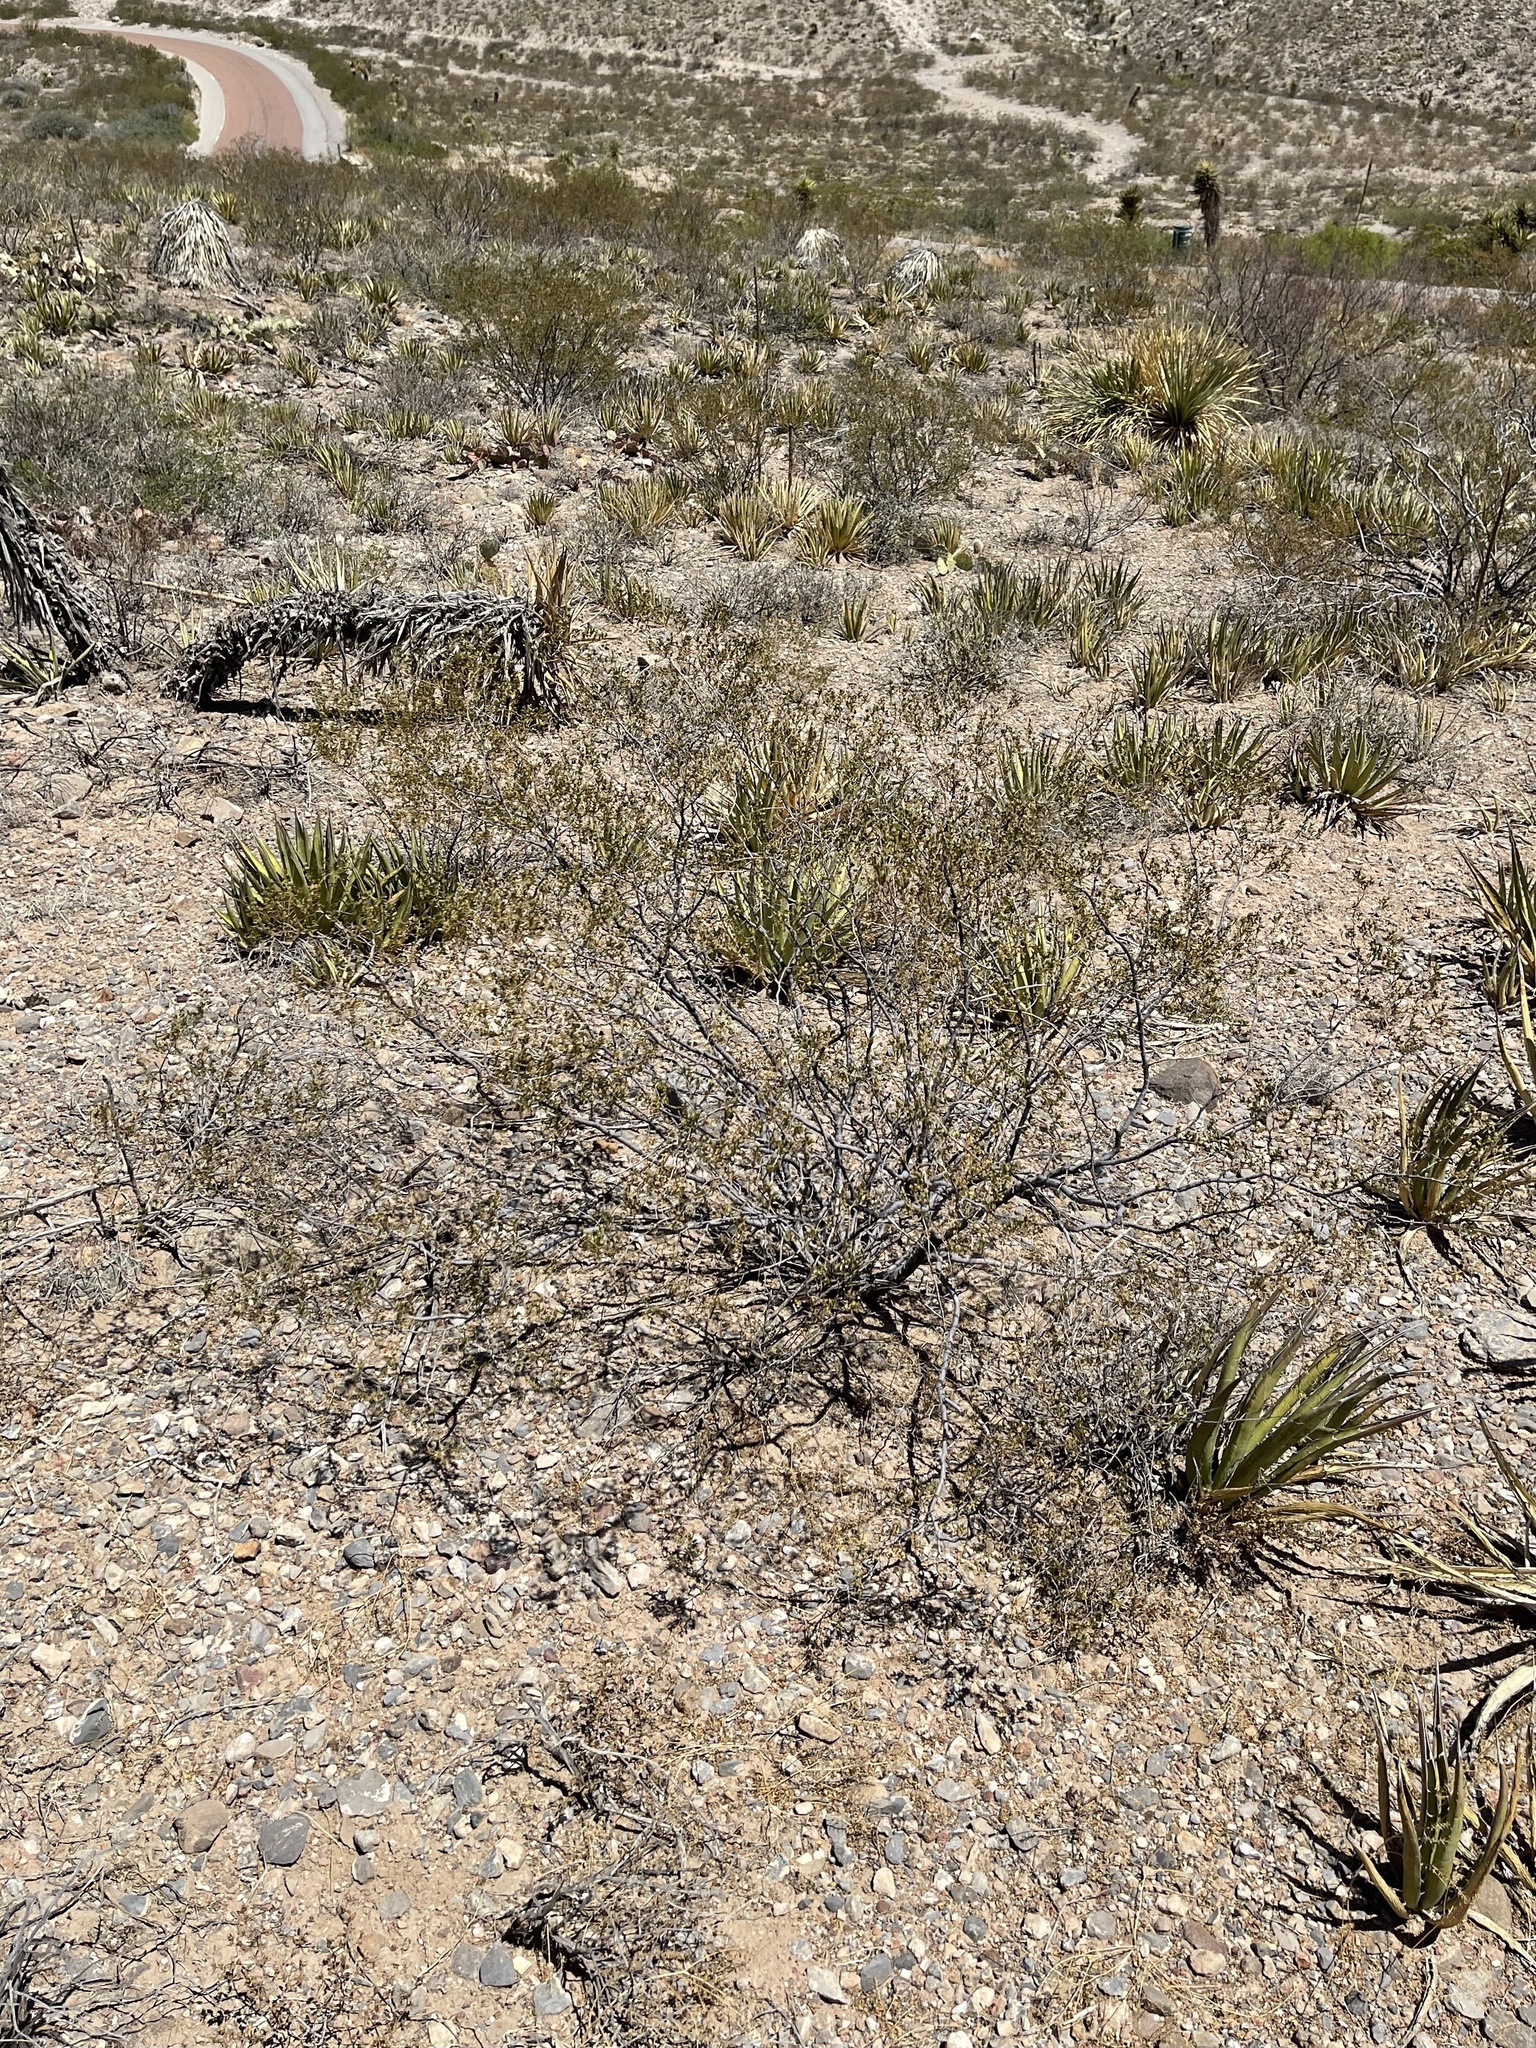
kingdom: Plantae
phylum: Tracheophyta
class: Magnoliopsida
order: Zygophyllales
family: Zygophyllaceae
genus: Larrea
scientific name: Larrea tridentata
